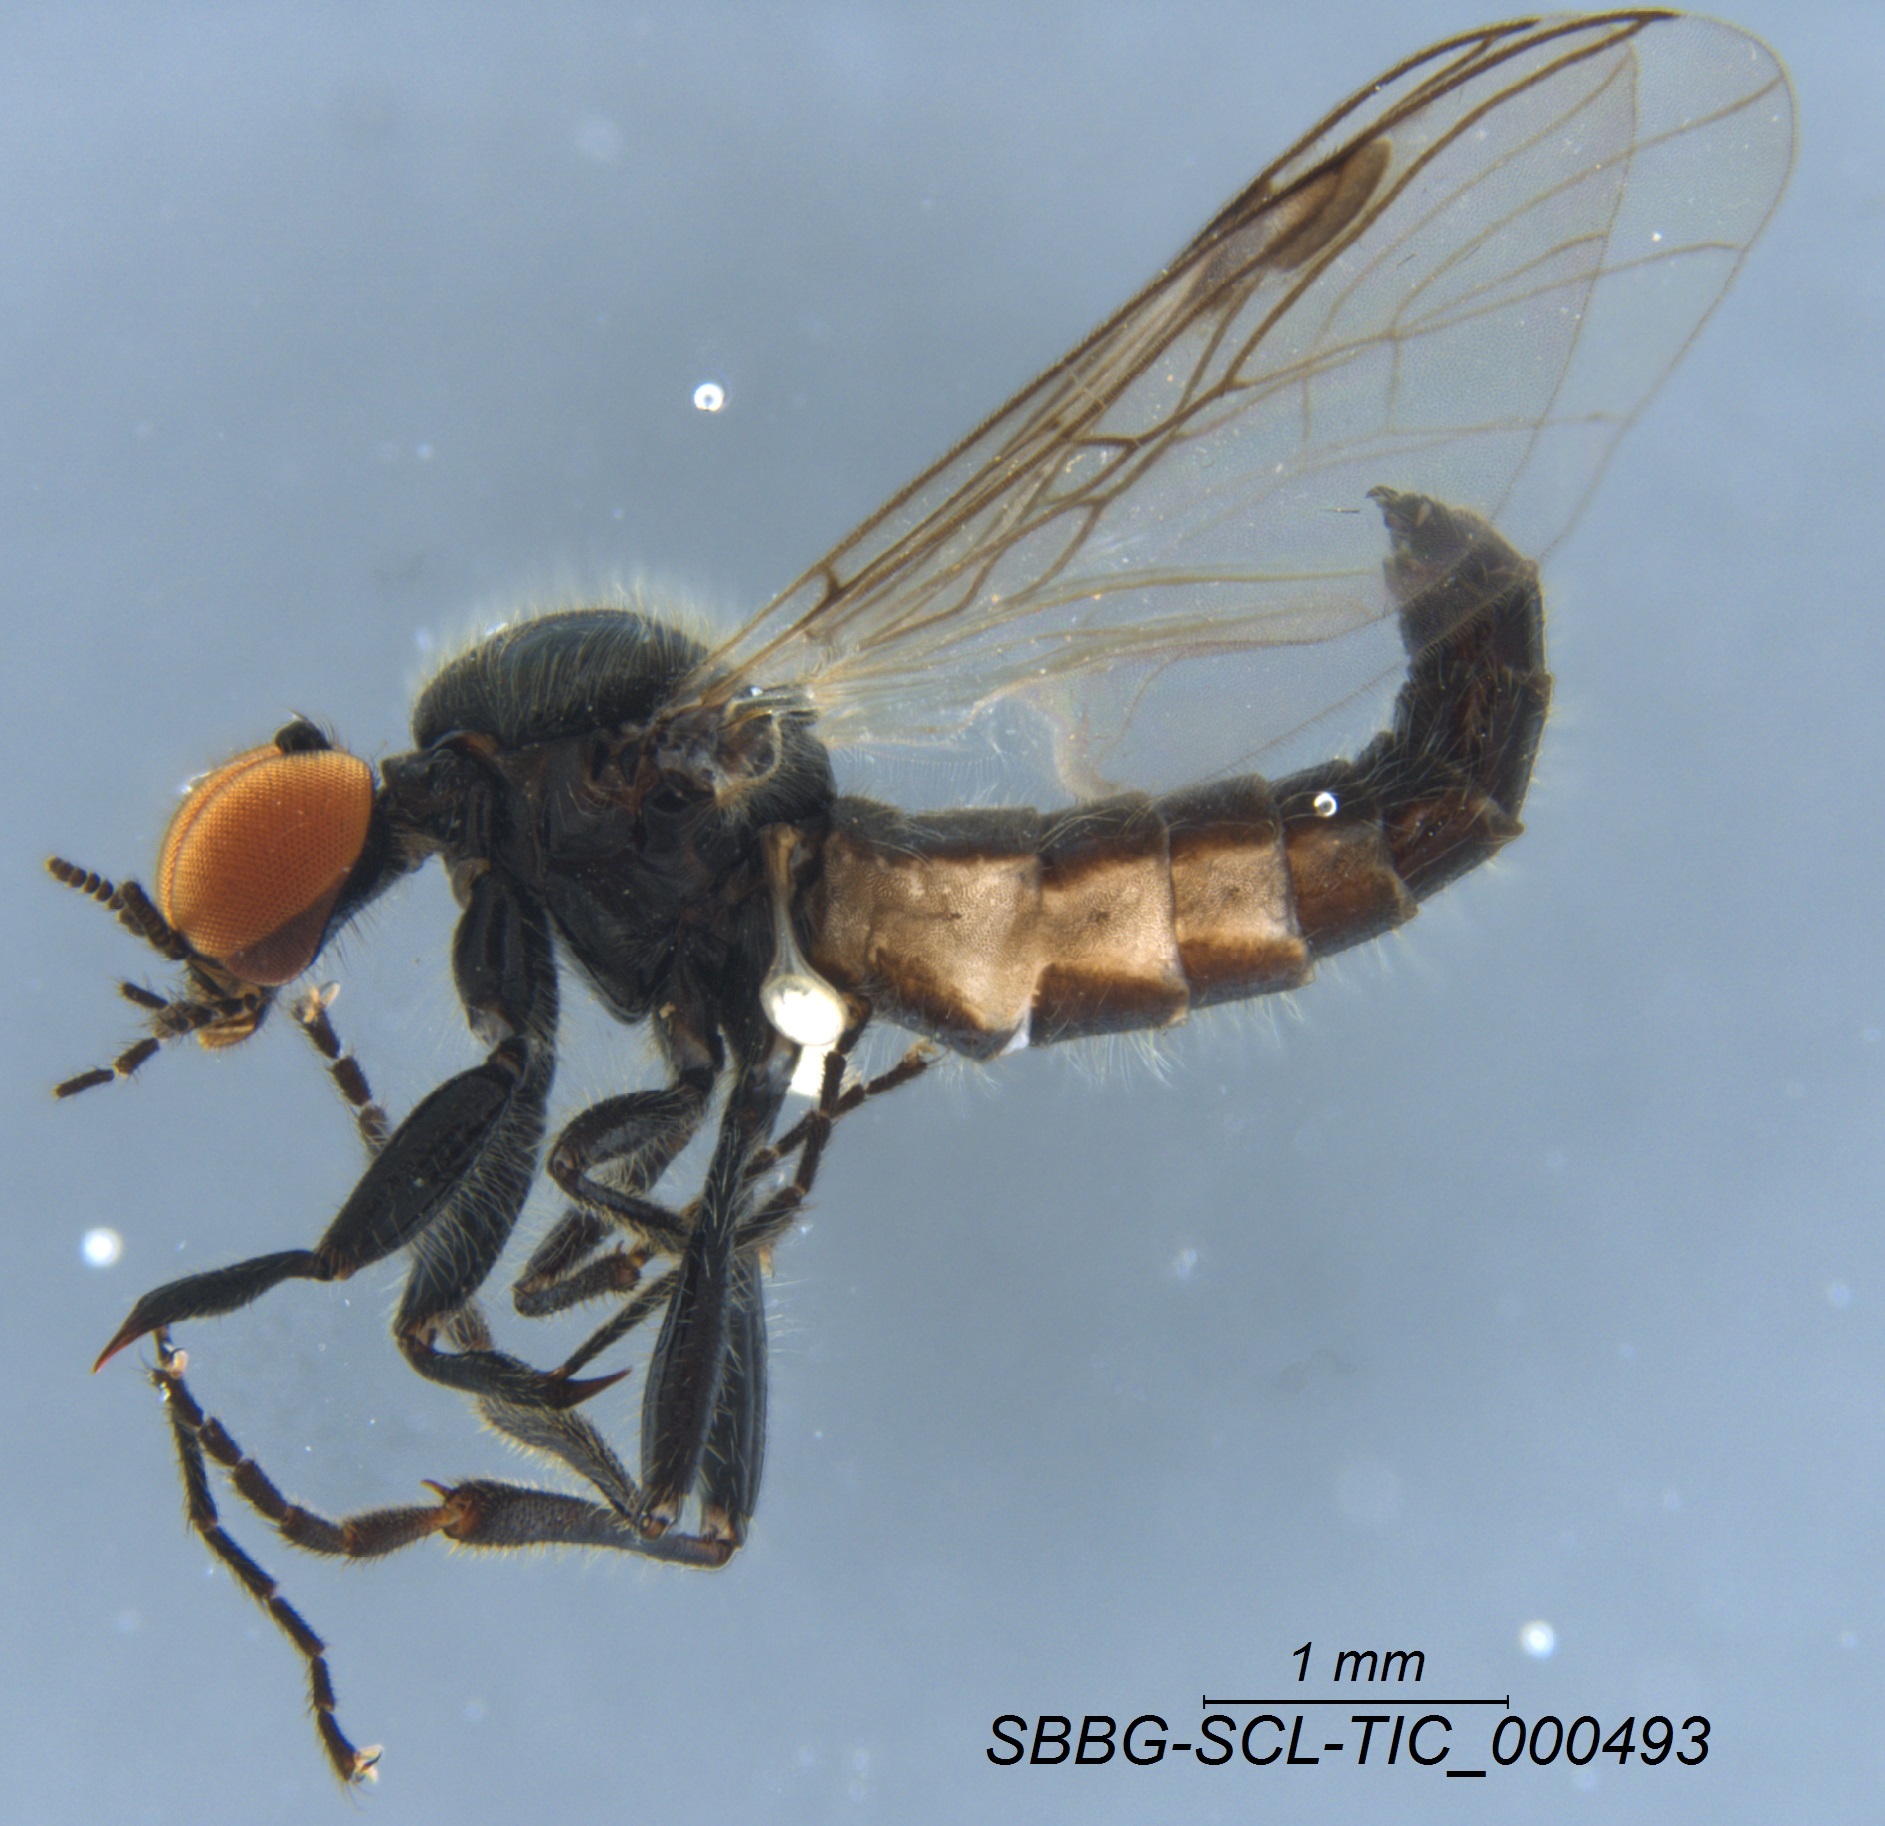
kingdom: Animalia
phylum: Arthropoda
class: Insecta
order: Diptera
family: Bibionidae
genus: Bibiodes
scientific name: Bibiodes halteralis
